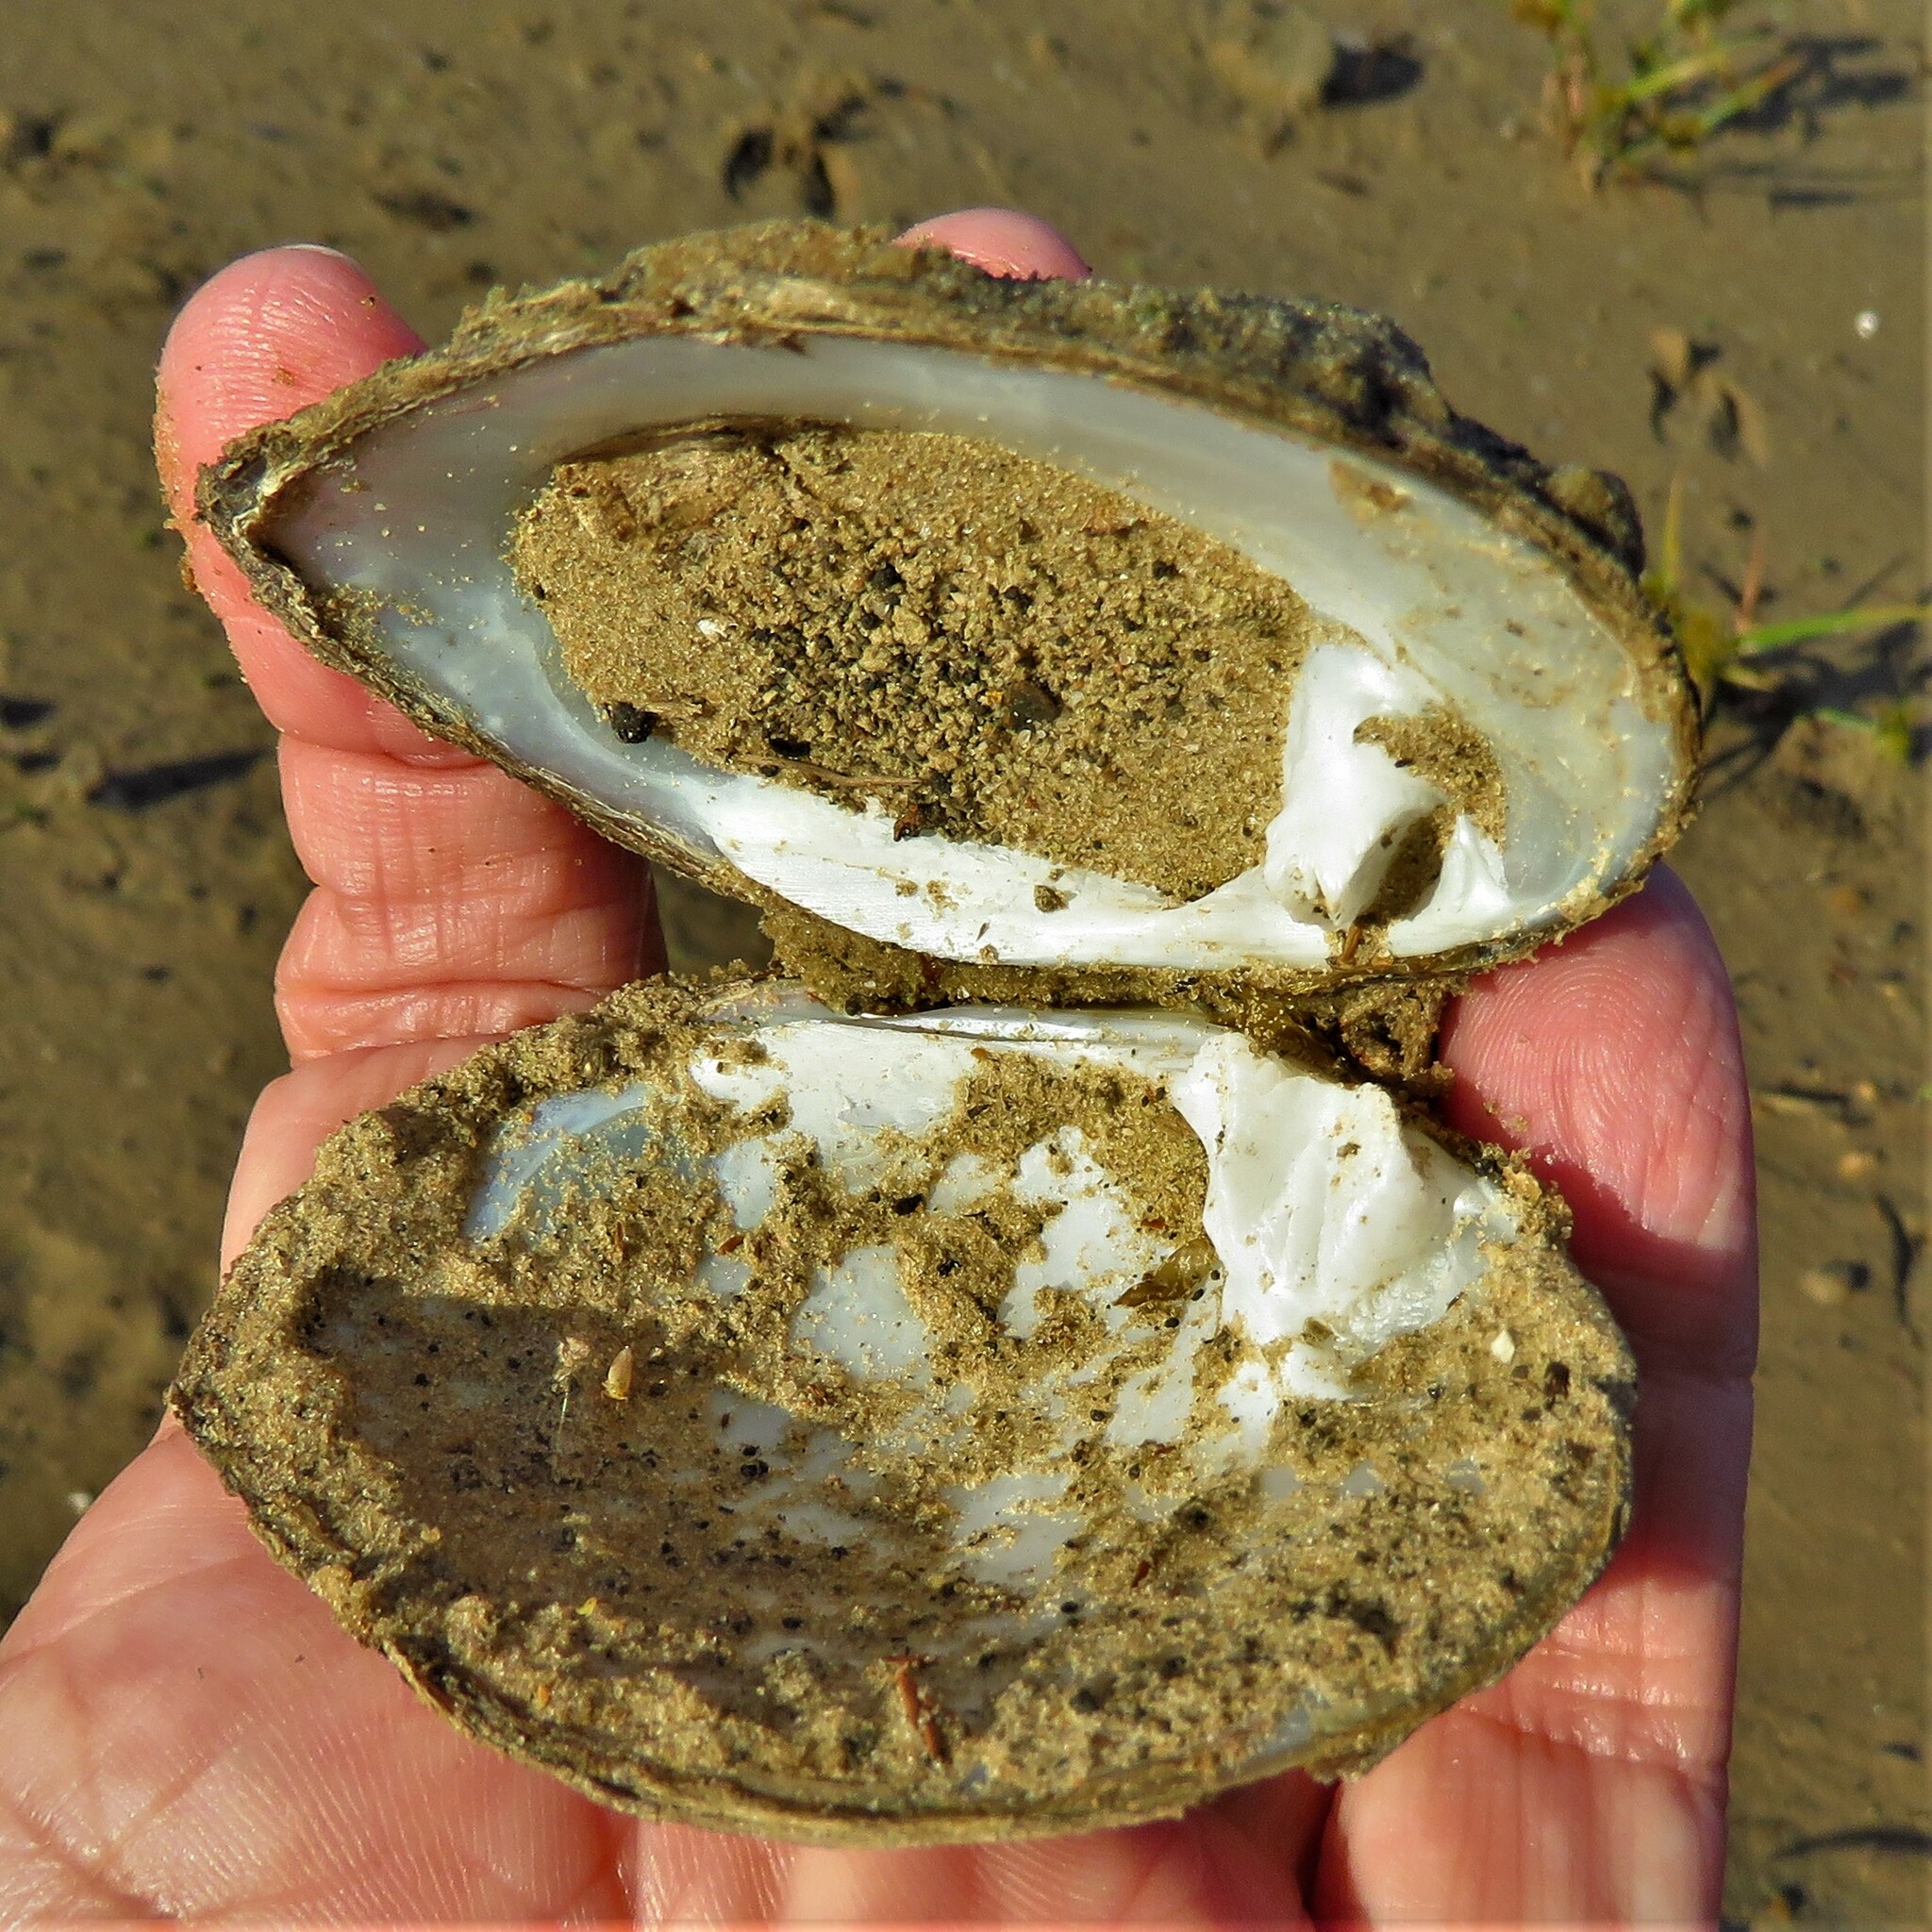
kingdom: Animalia
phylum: Mollusca
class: Bivalvia
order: Unionida
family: Unionidae
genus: Quadrula
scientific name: Quadrula quadrula
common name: Mapleleaf
